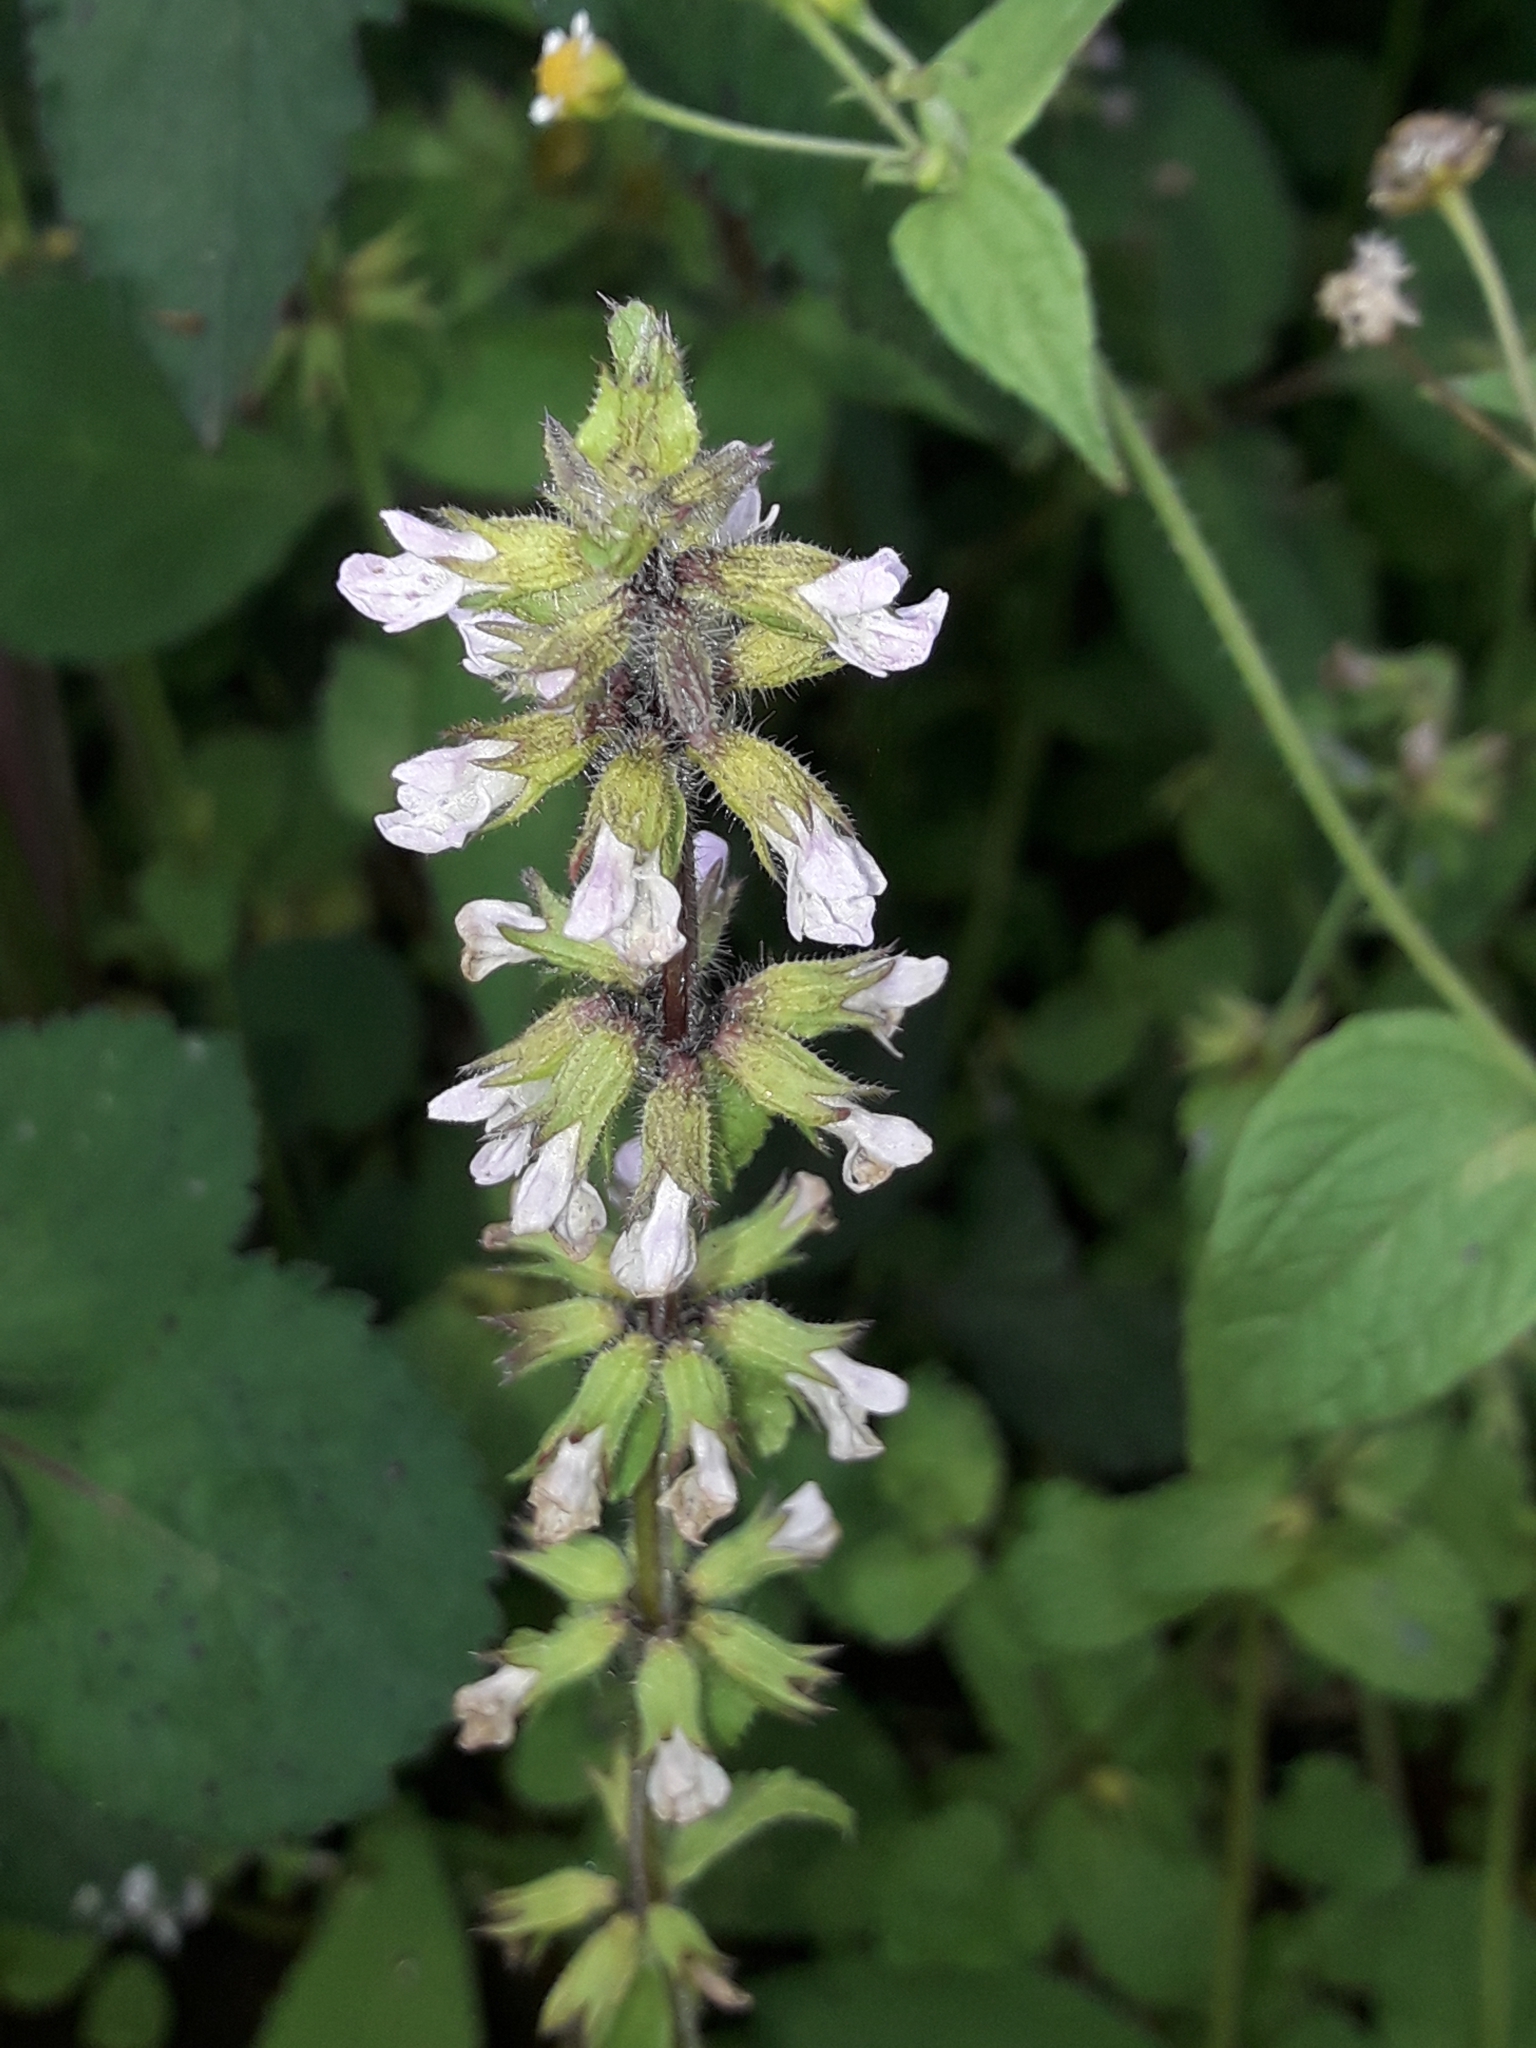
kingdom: Plantae
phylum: Tracheophyta
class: Magnoliopsida
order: Lamiales
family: Lamiaceae
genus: Stachys
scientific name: Stachys arvensis
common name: Field woundwort
